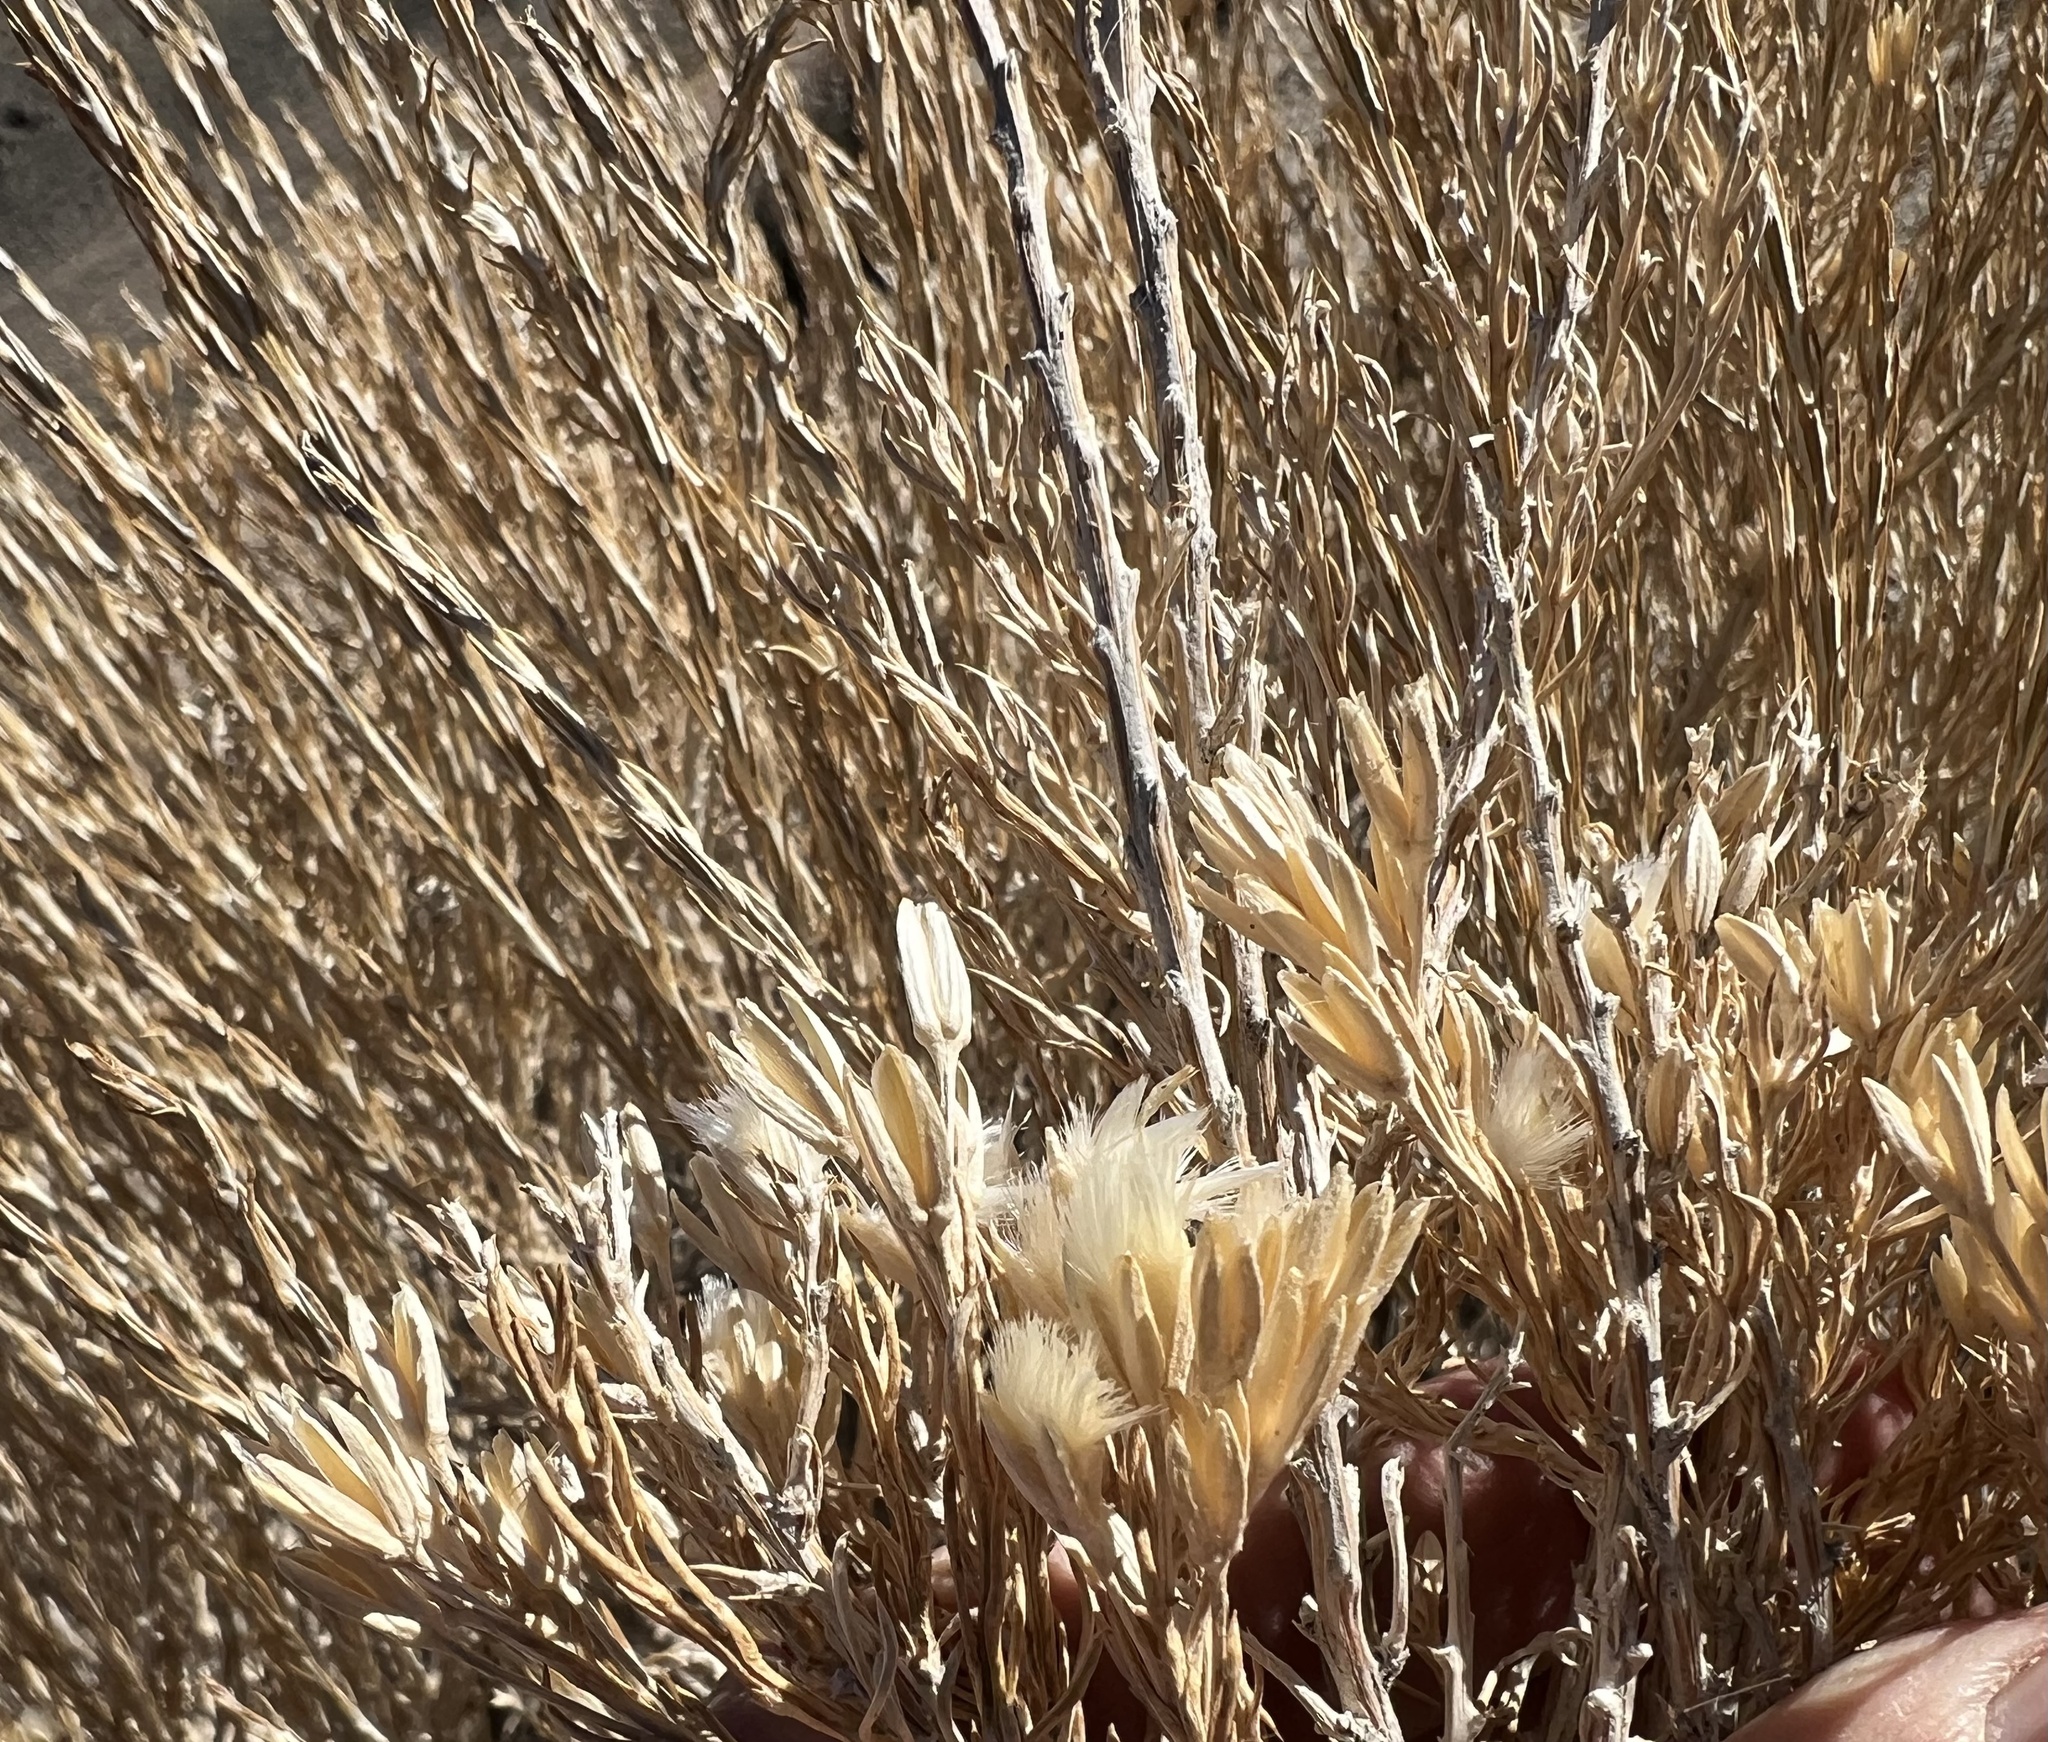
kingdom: Plantae
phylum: Tracheophyta
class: Magnoliopsida
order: Asterales
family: Asteraceae
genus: Tetradymia
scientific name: Tetradymia glabrata
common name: Smooth tetradymia
